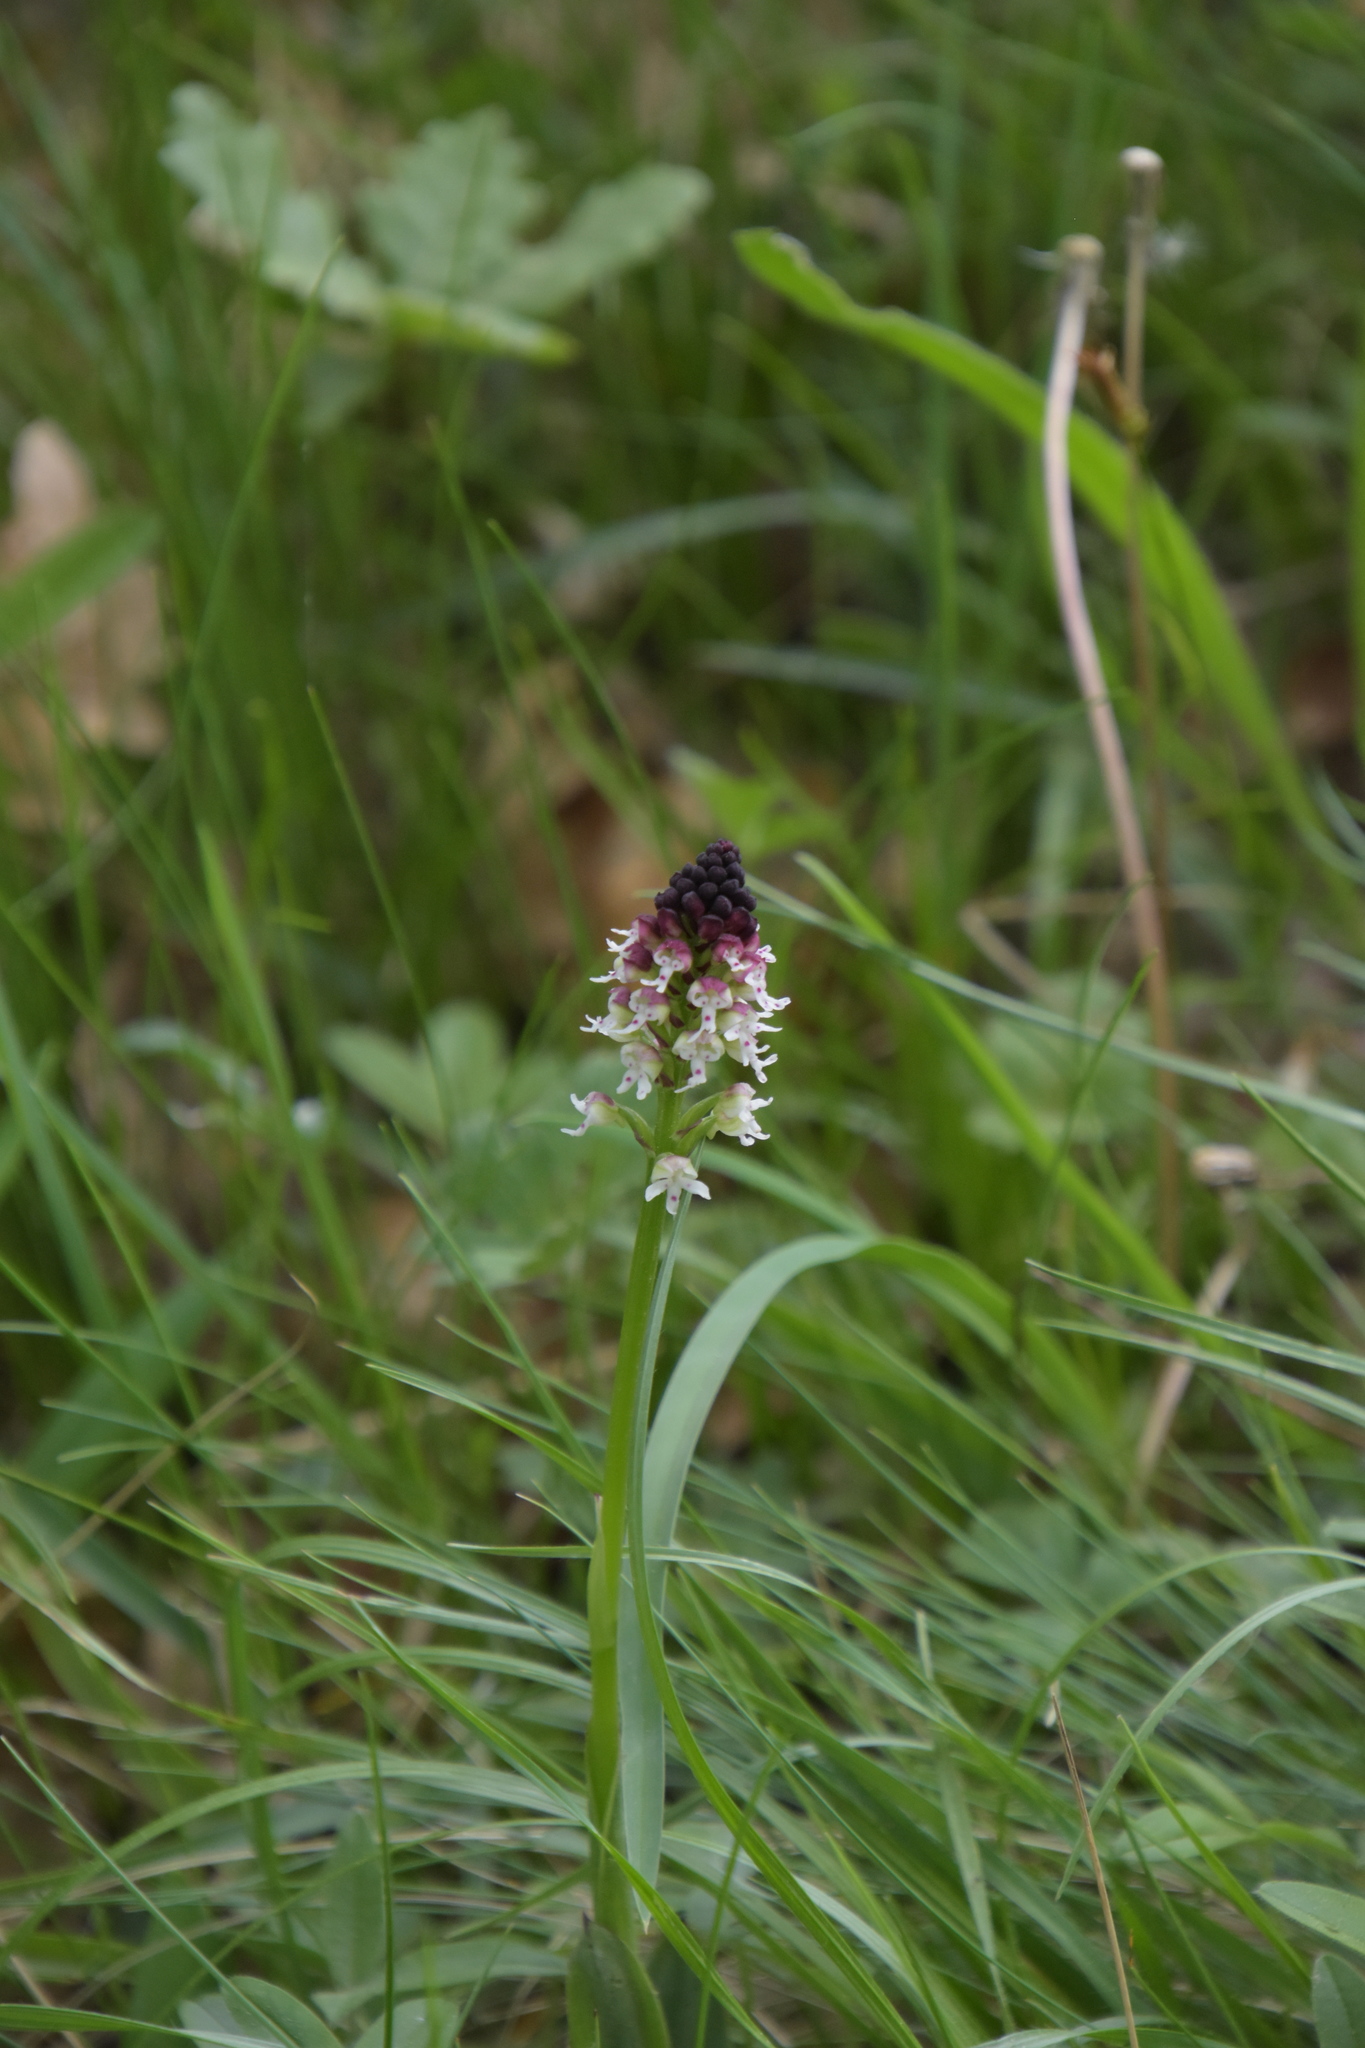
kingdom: Plantae
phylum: Tracheophyta
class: Liliopsida
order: Asparagales
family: Orchidaceae
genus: Neotinea
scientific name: Neotinea ustulata
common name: Burnt orchid
